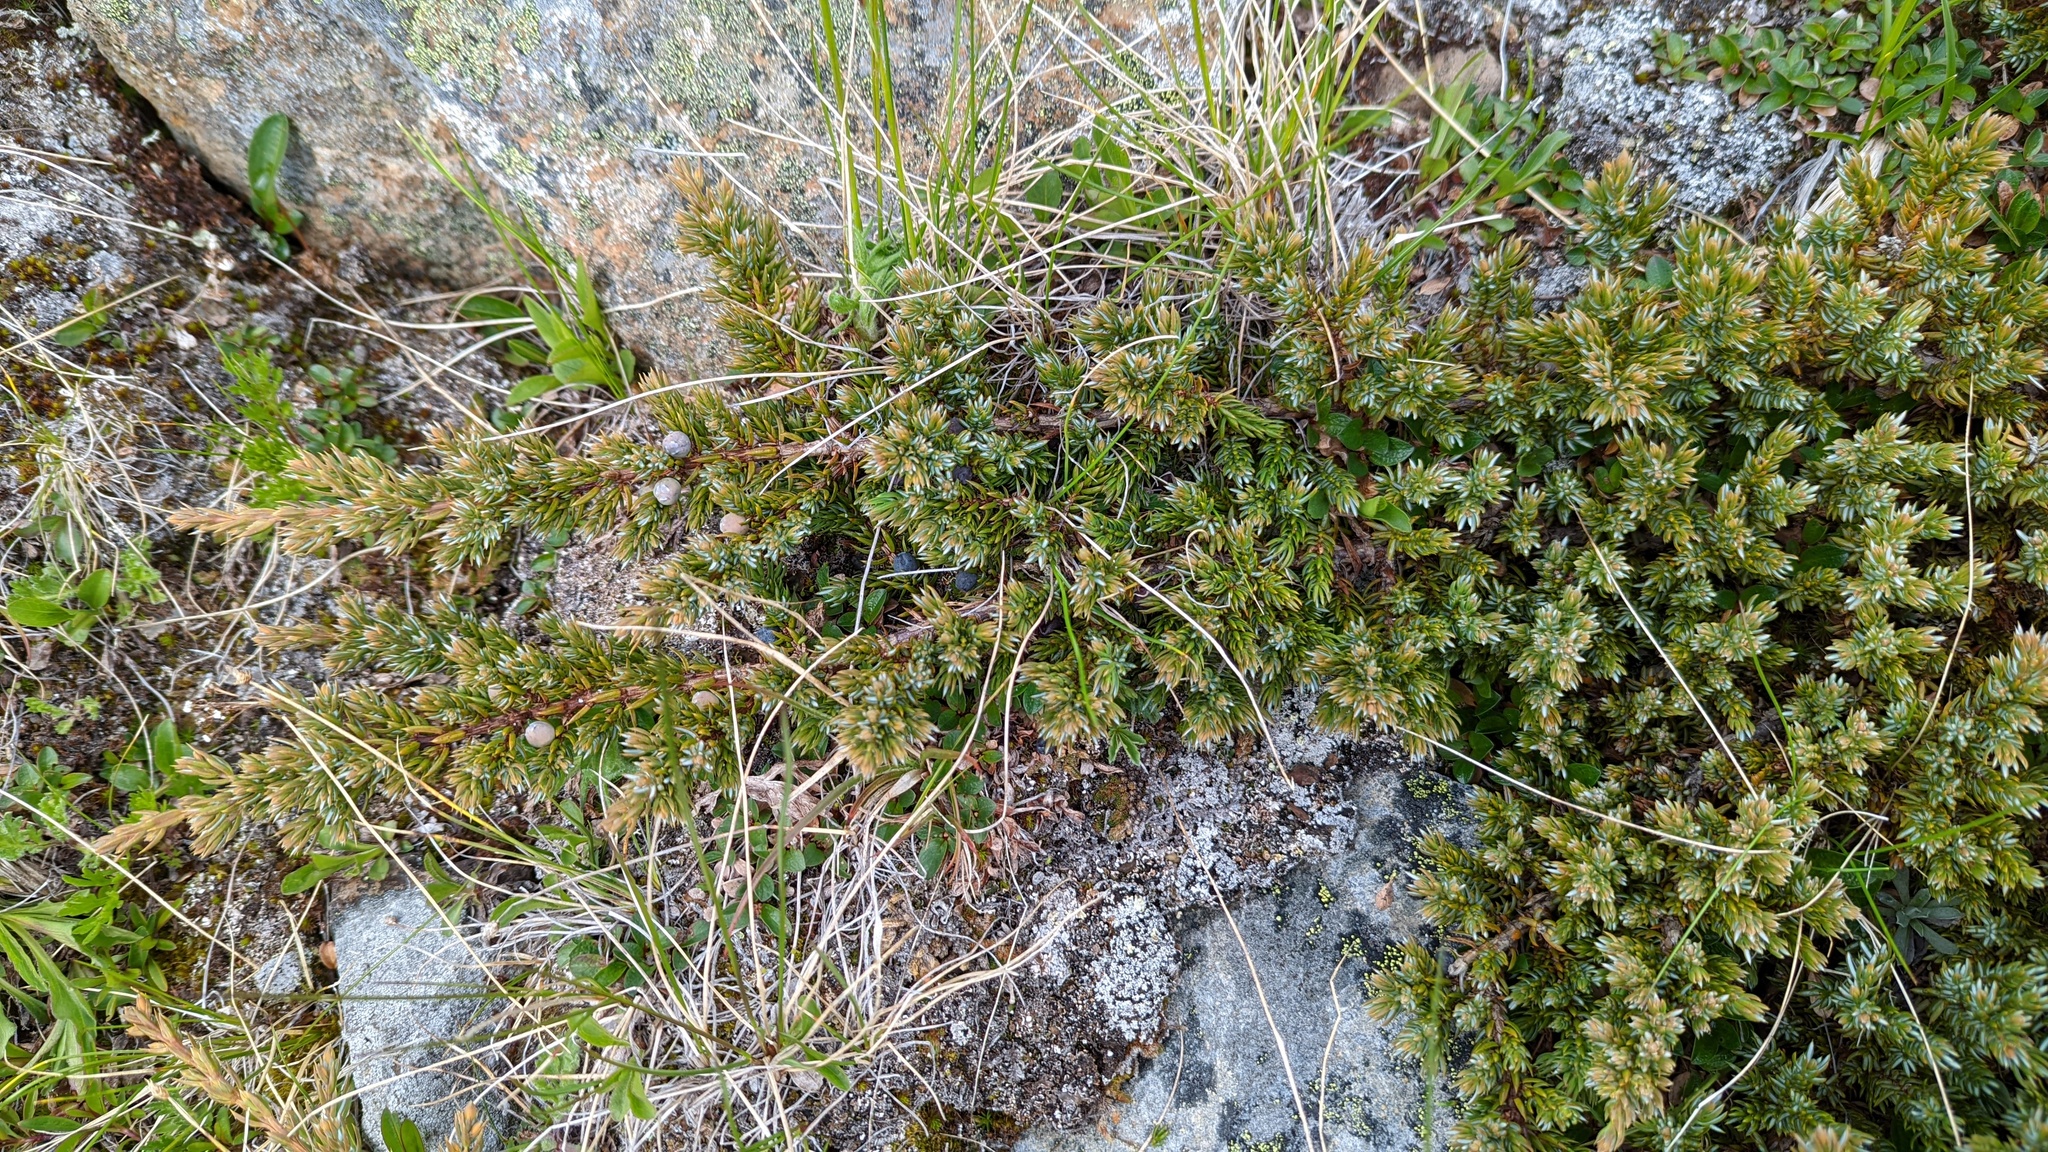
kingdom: Plantae
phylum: Tracheophyta
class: Pinopsida
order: Pinales
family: Cupressaceae
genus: Juniperus
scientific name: Juniperus communis
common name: Common juniper
